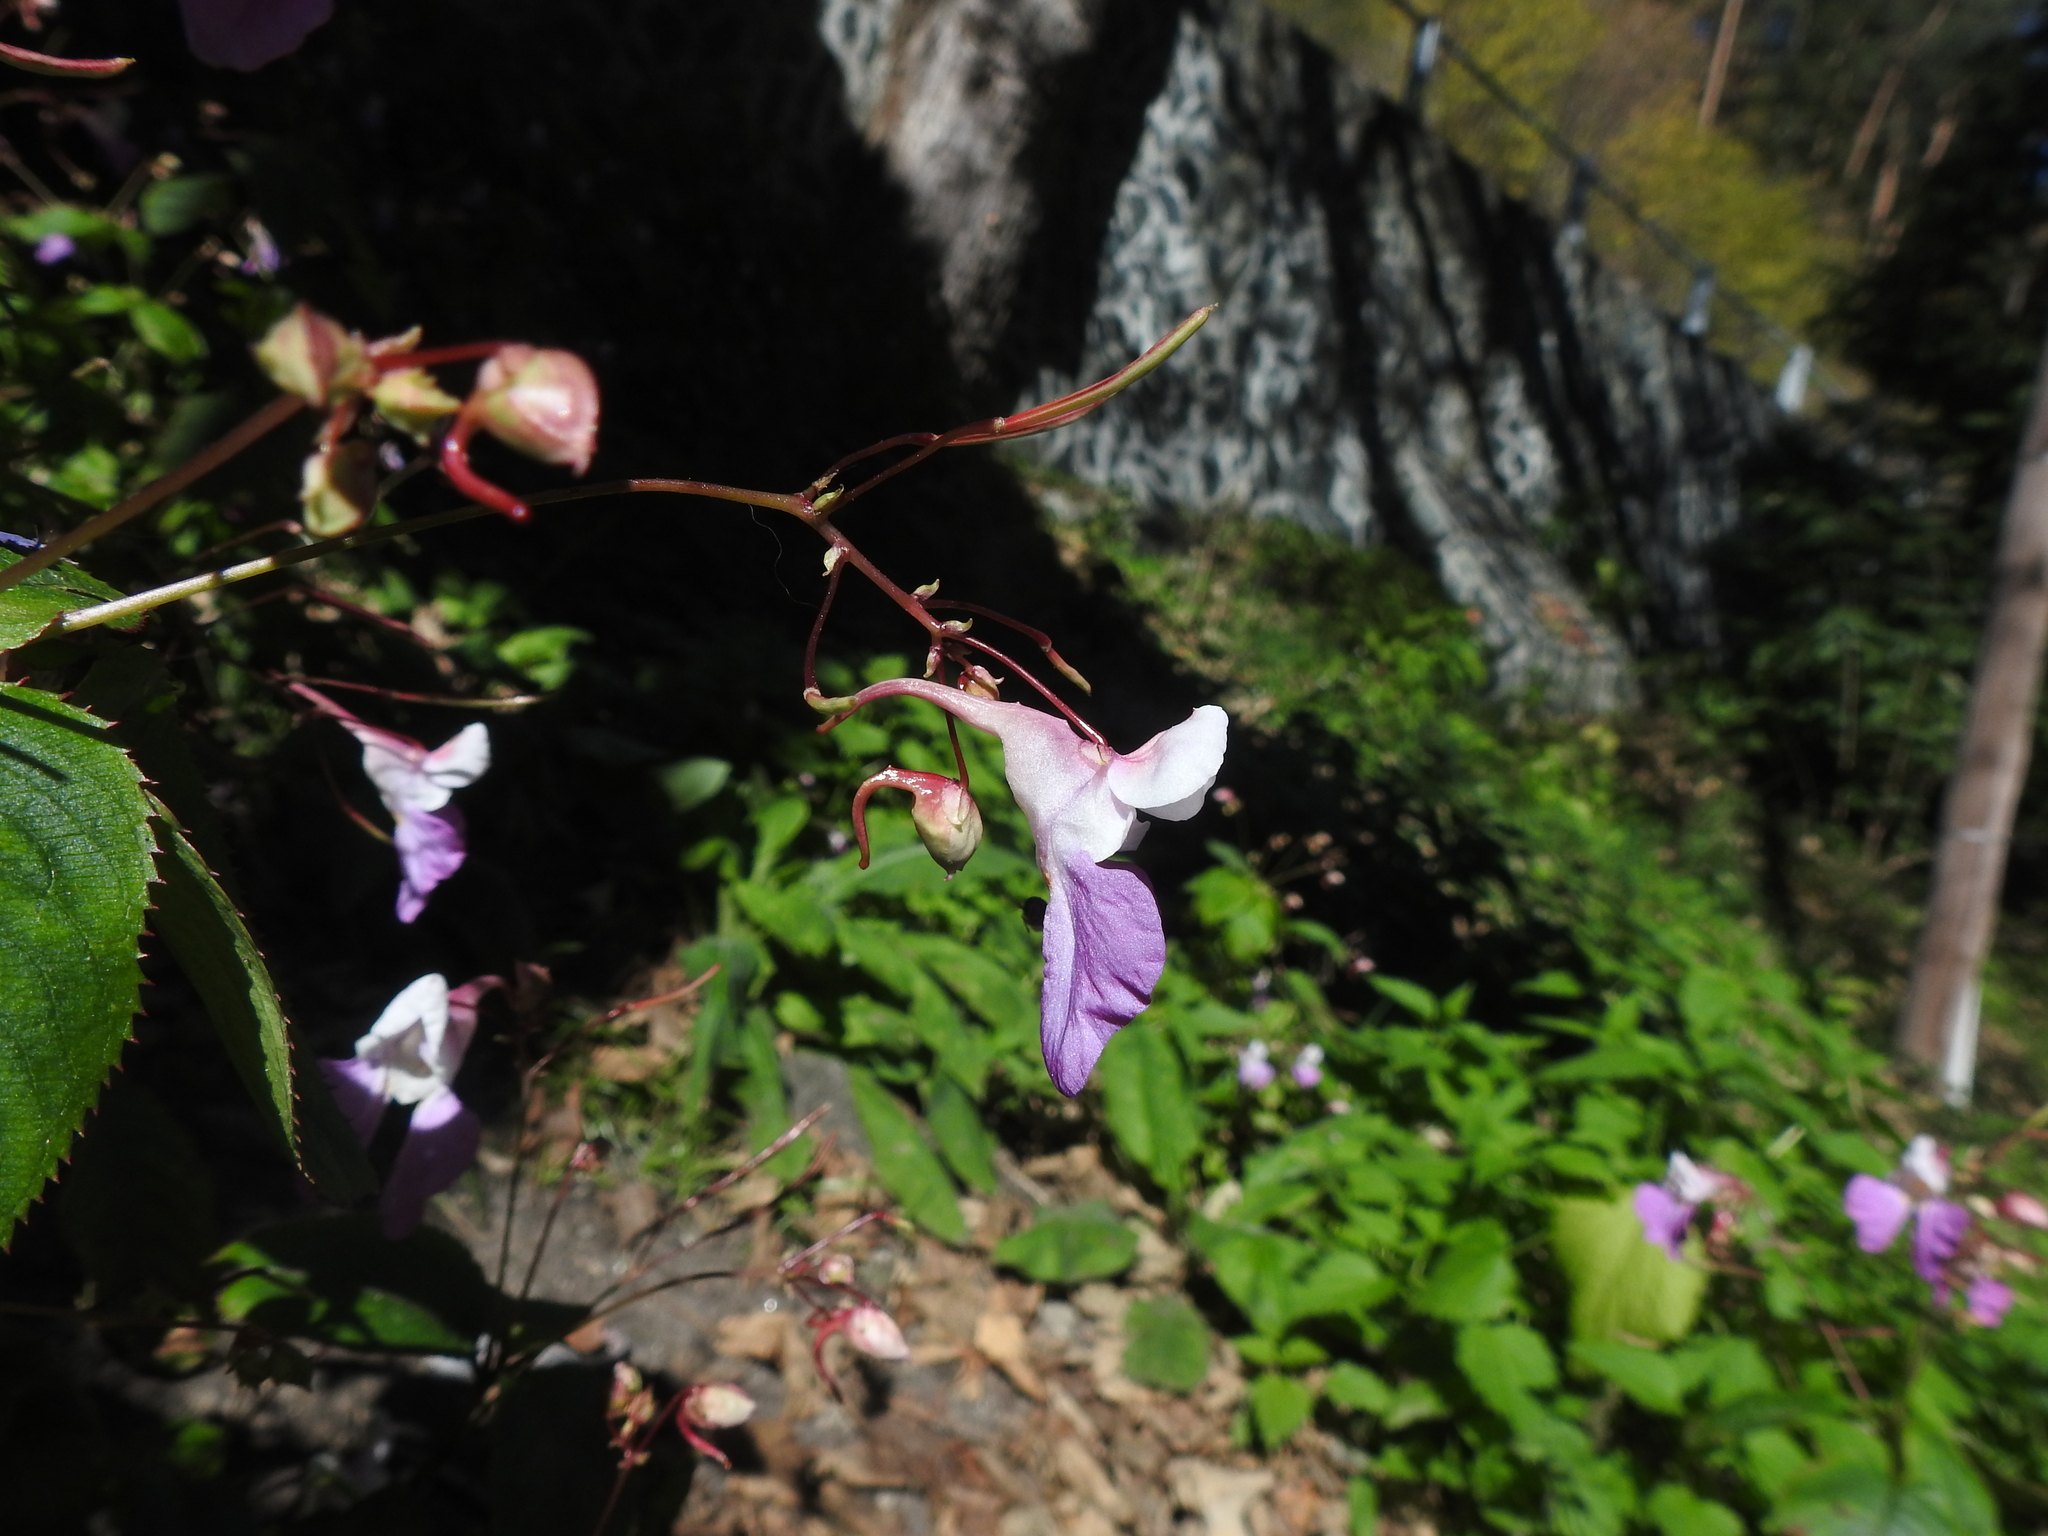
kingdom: Plantae
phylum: Tracheophyta
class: Magnoliopsida
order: Ericales
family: Balsaminaceae
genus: Impatiens
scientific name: Impatiens balfourii
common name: Balfour's touch-me-not
